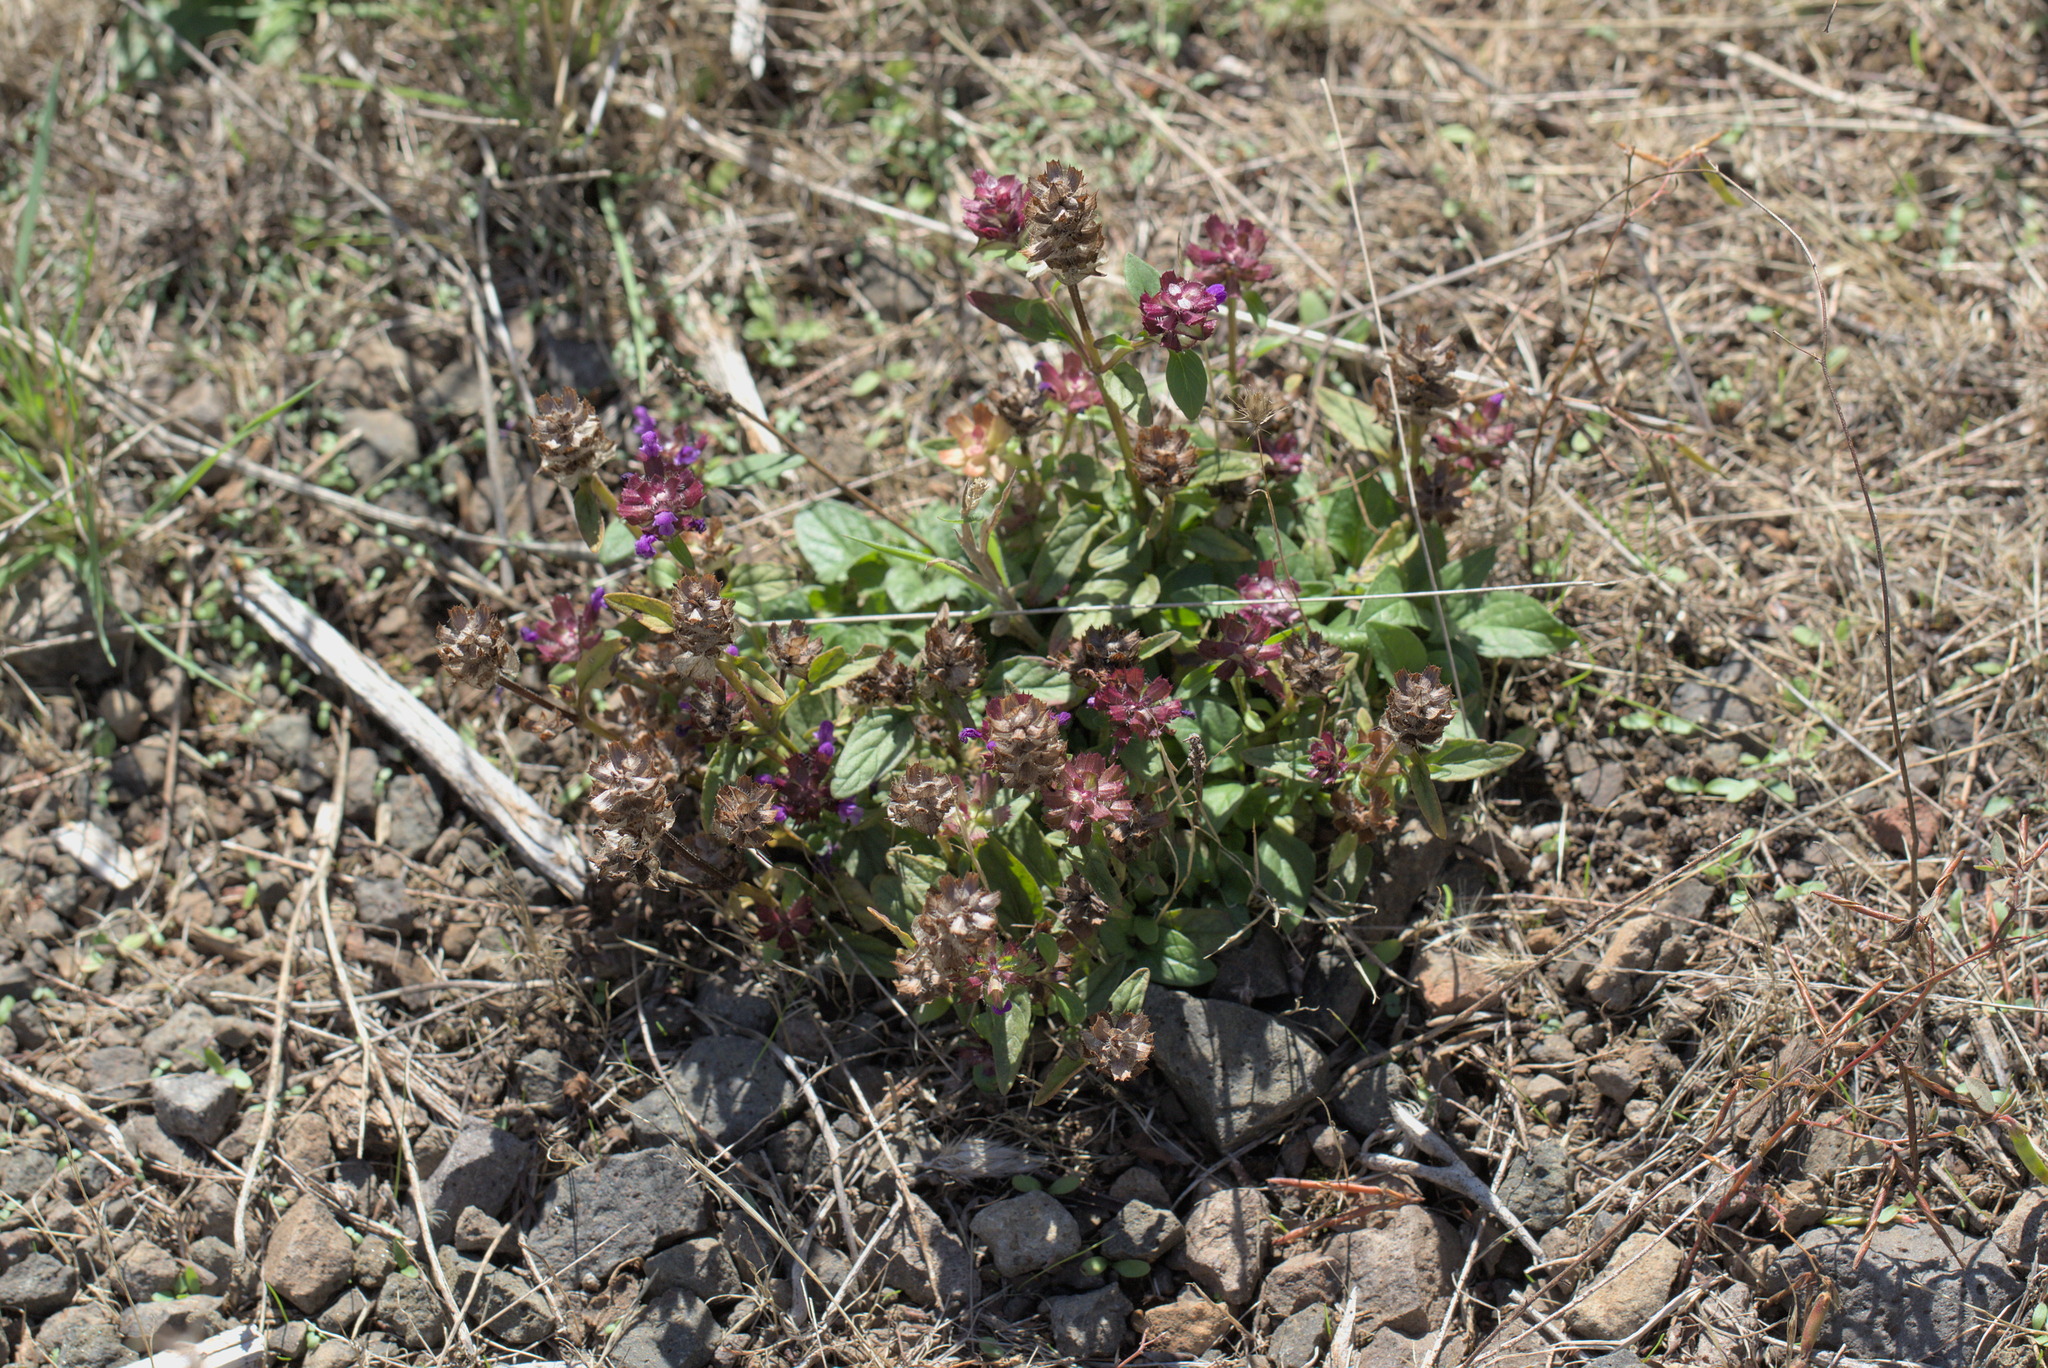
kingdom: Plantae
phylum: Tracheophyta
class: Magnoliopsida
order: Lamiales
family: Lamiaceae
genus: Prunella
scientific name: Prunella vulgaris
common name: Heal-all
